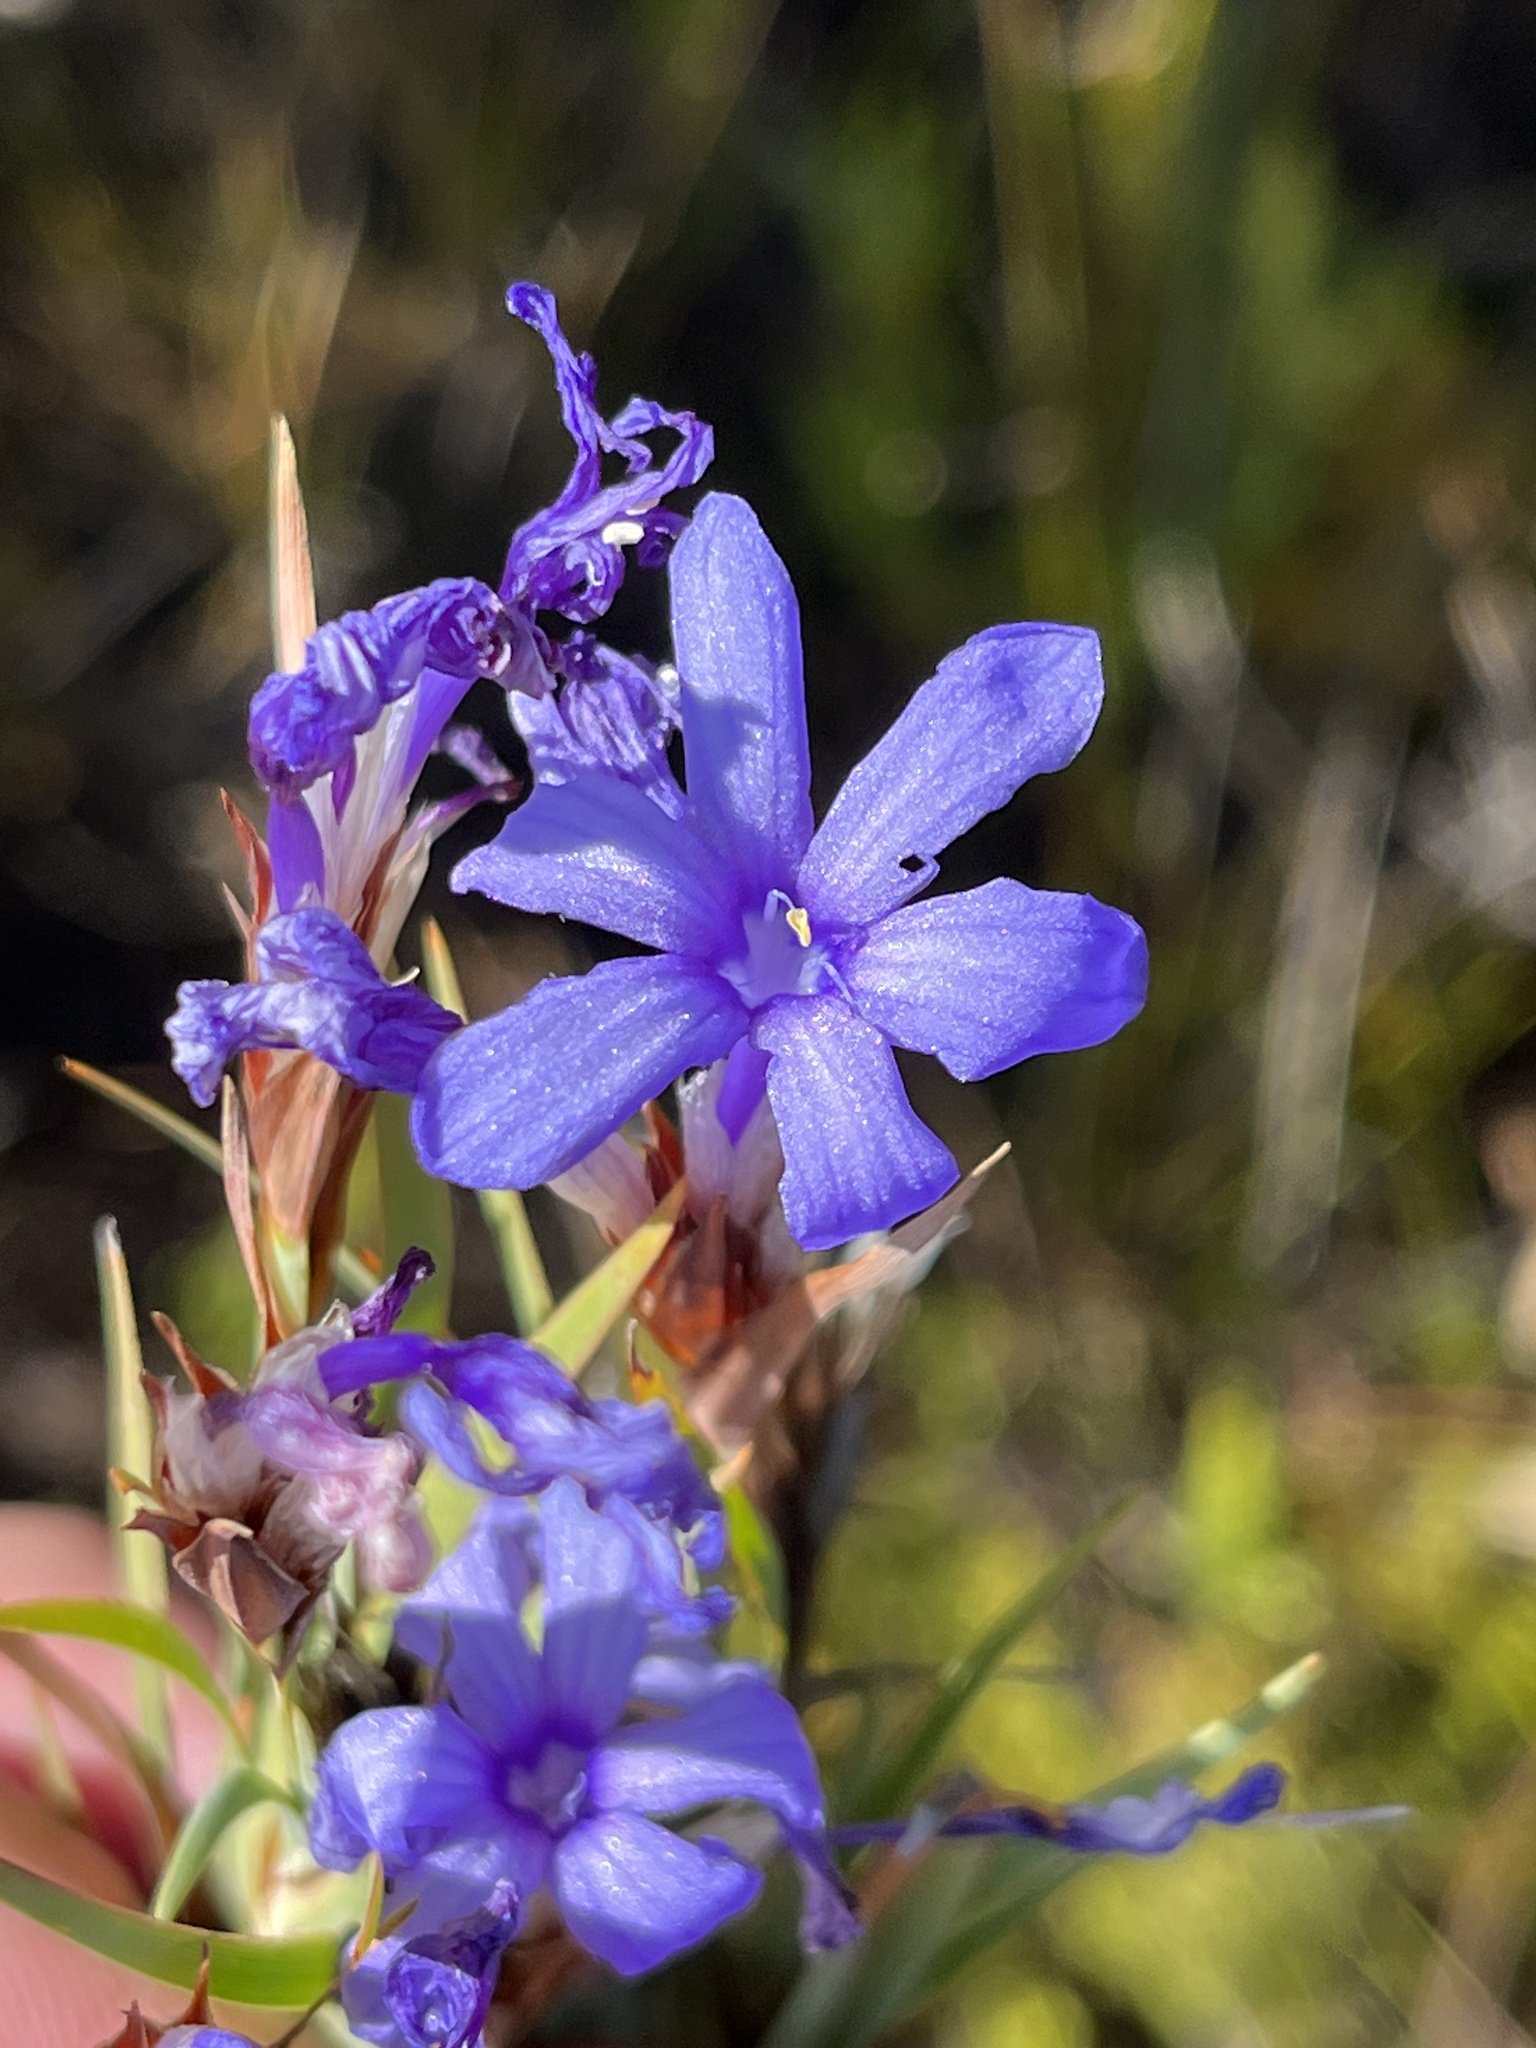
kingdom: Plantae
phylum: Tracheophyta
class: Liliopsida
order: Asparagales
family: Iridaceae
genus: Nivenia
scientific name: Nivenia argentea
